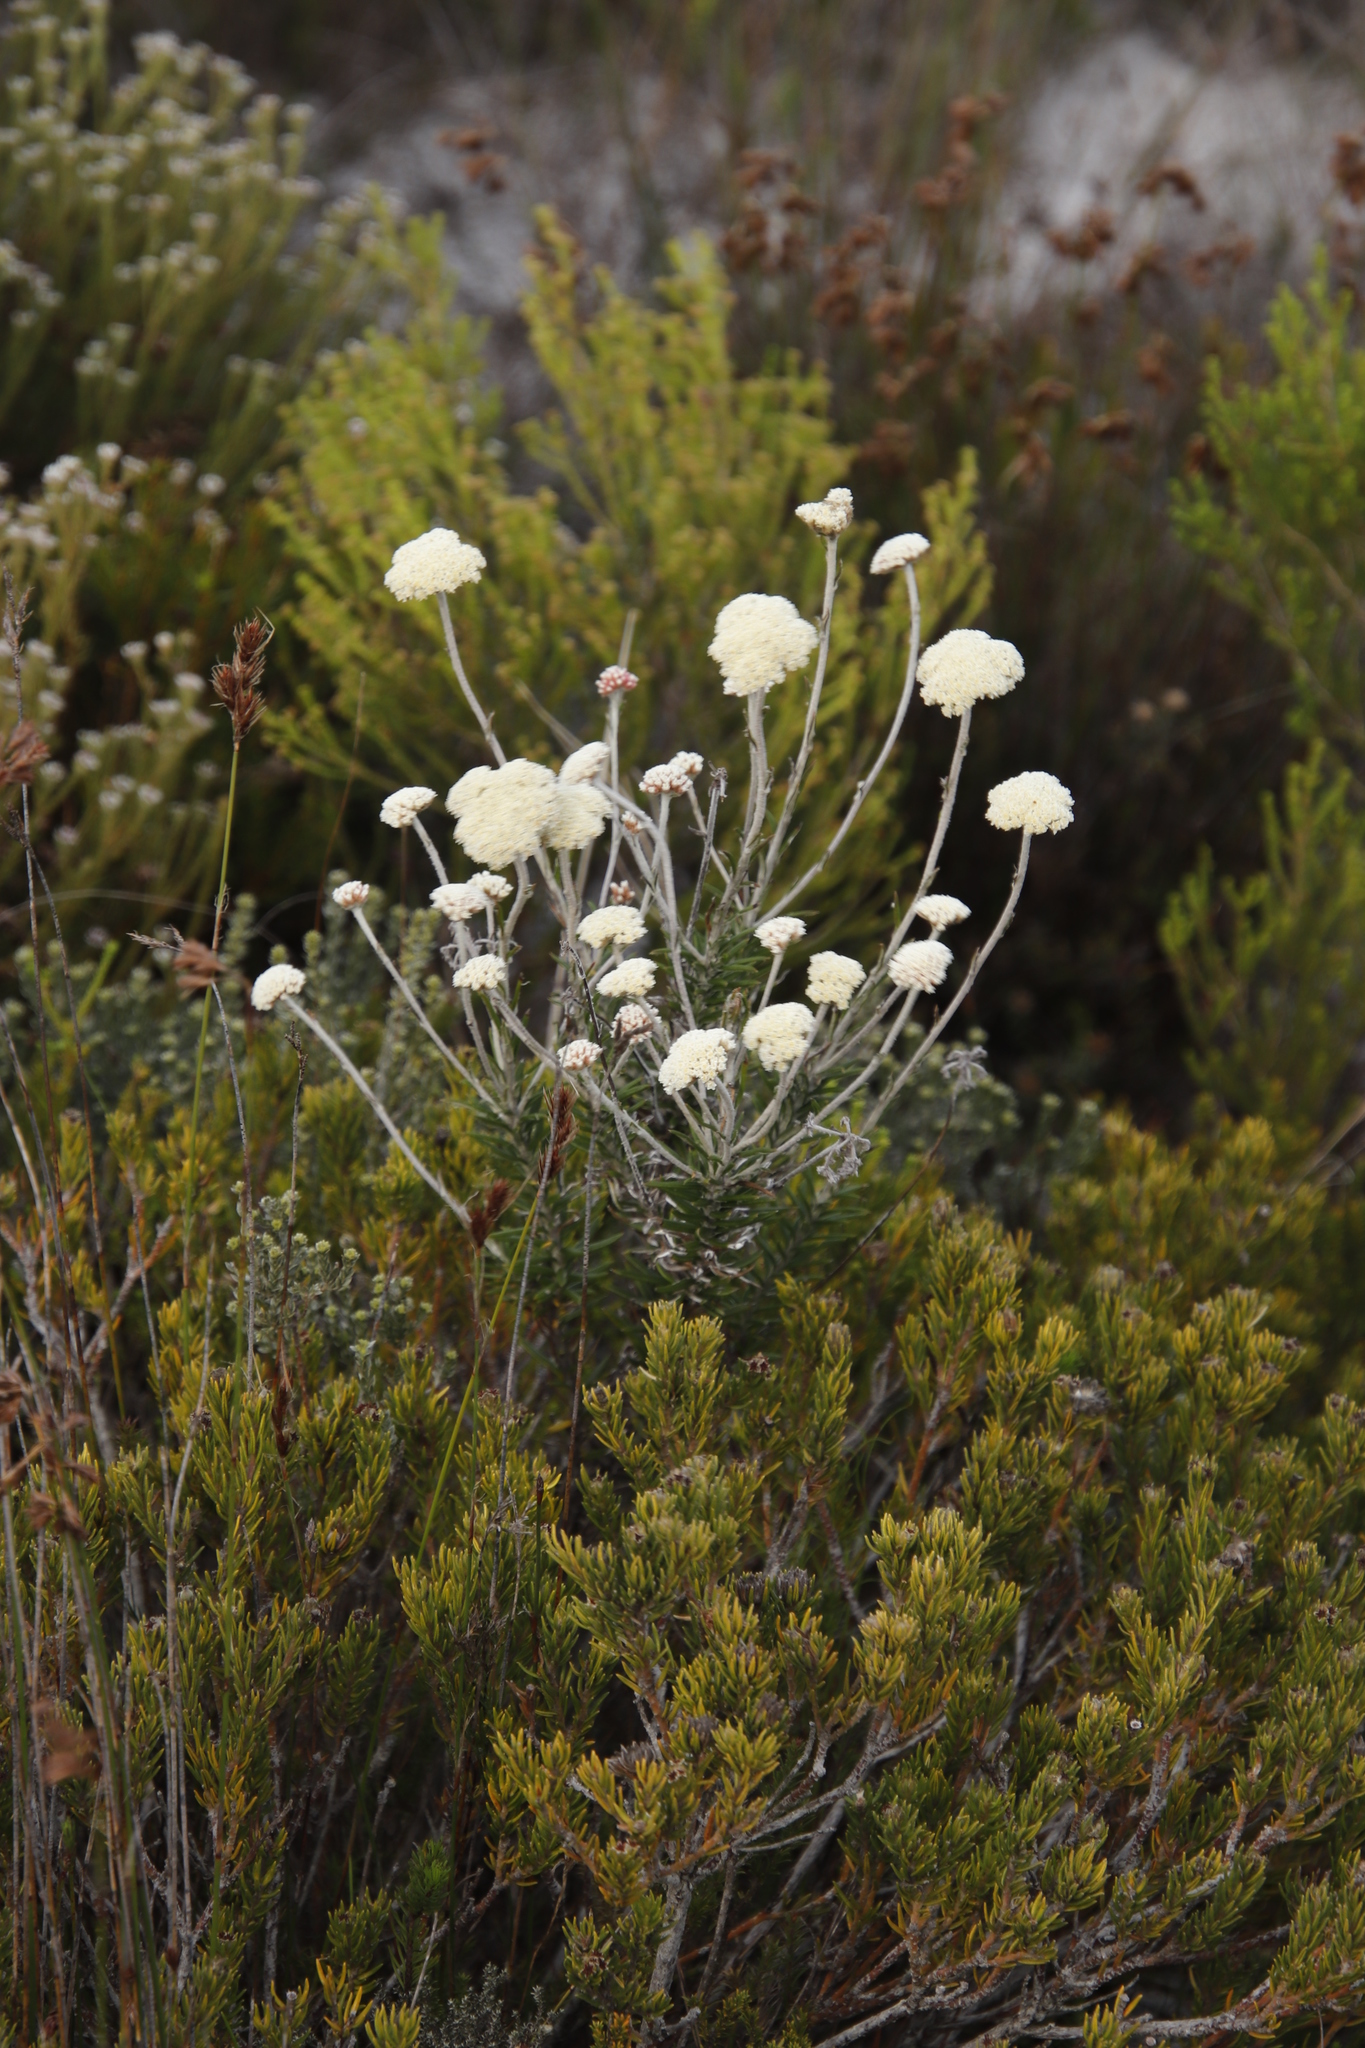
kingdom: Plantae
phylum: Tracheophyta
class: Magnoliopsida
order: Asterales
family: Asteraceae
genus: Anaxeton
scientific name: Anaxeton laeve
